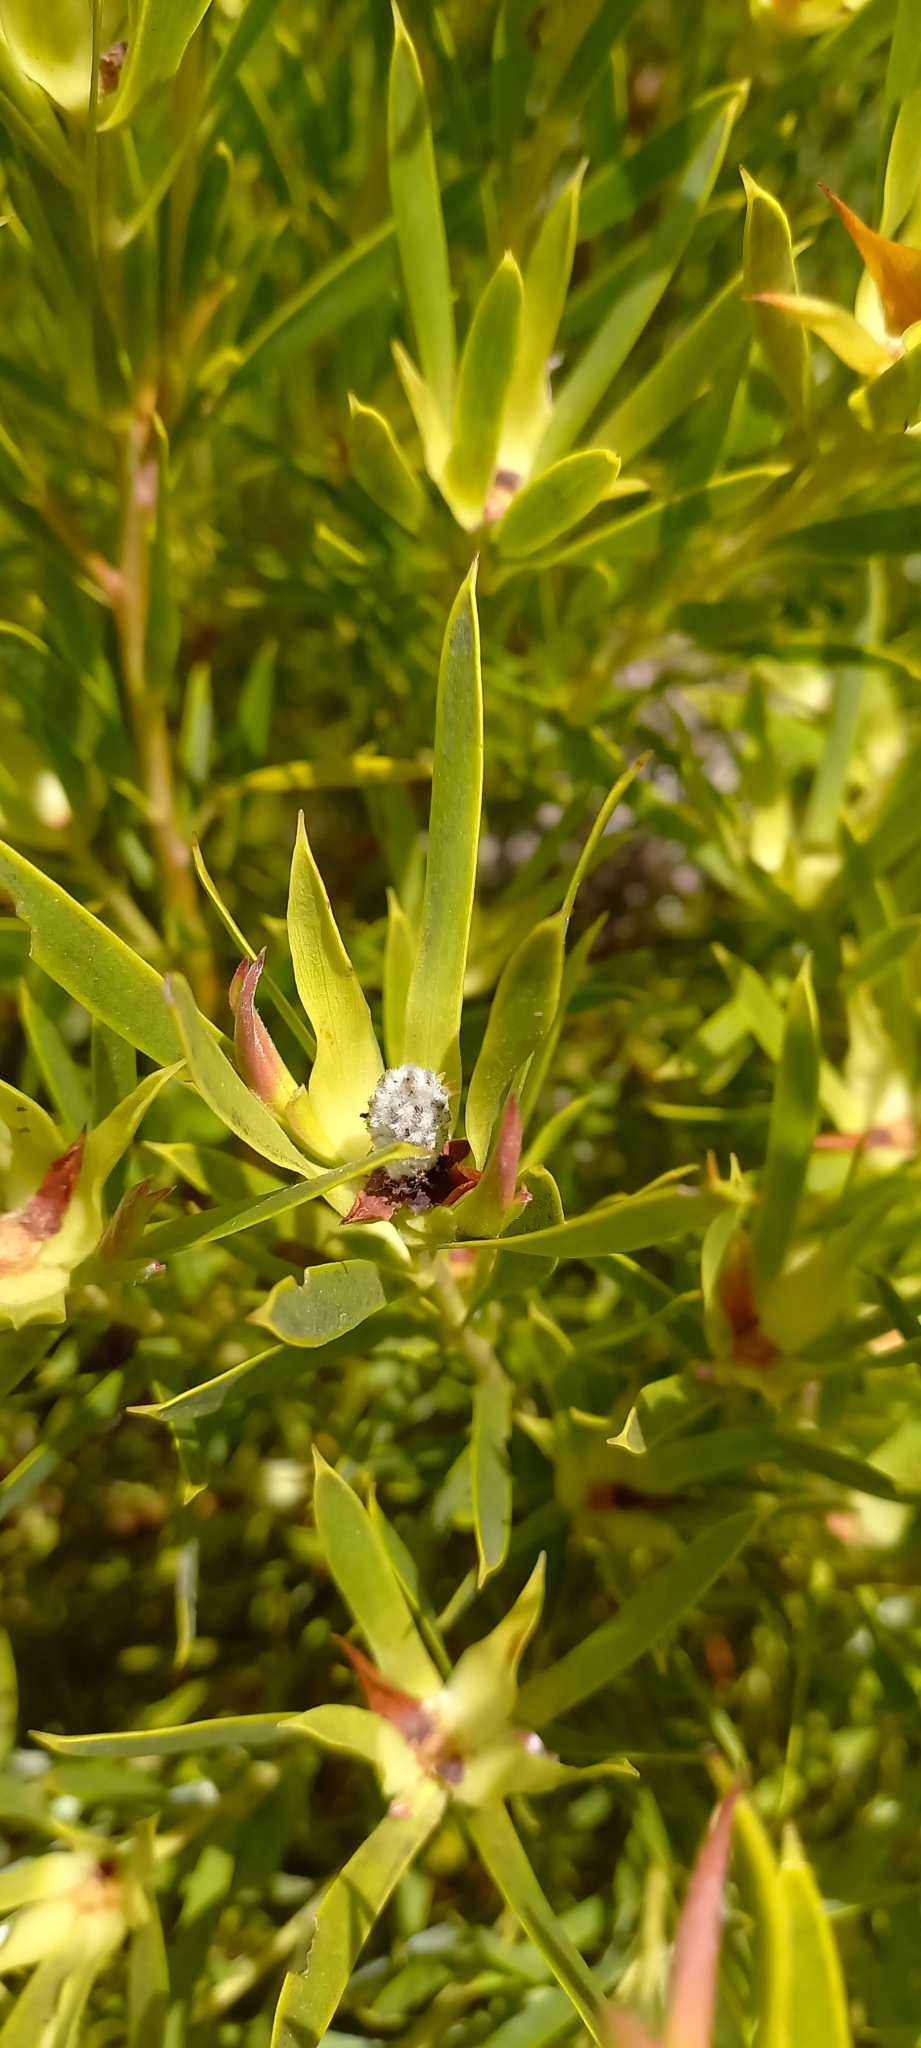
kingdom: Plantae
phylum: Tracheophyta
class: Magnoliopsida
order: Proteales
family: Proteaceae
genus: Leucadendron
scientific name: Leucadendron xanthoconus
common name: Sickle-leaf conebush
